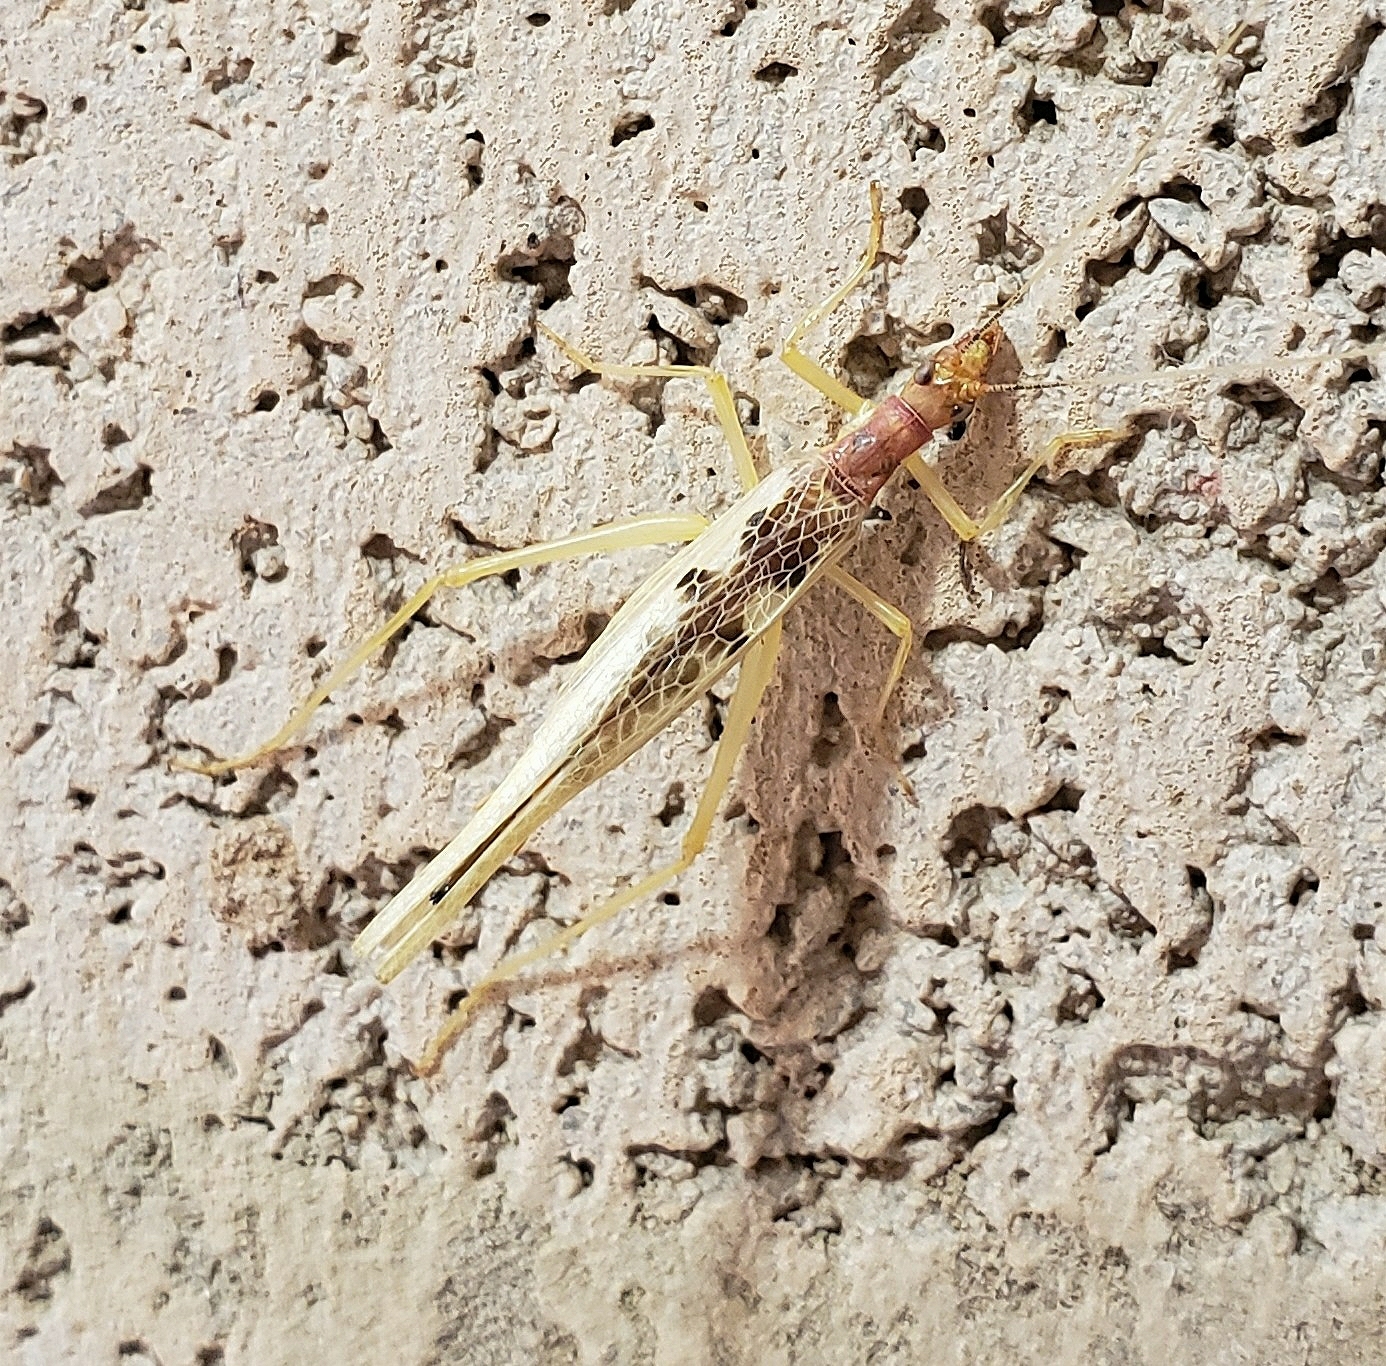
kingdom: Animalia
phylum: Arthropoda
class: Insecta
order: Orthoptera
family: Gryllidae
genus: Neoxabea
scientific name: Neoxabea bipunctata
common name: Two-spotted tree cricket
